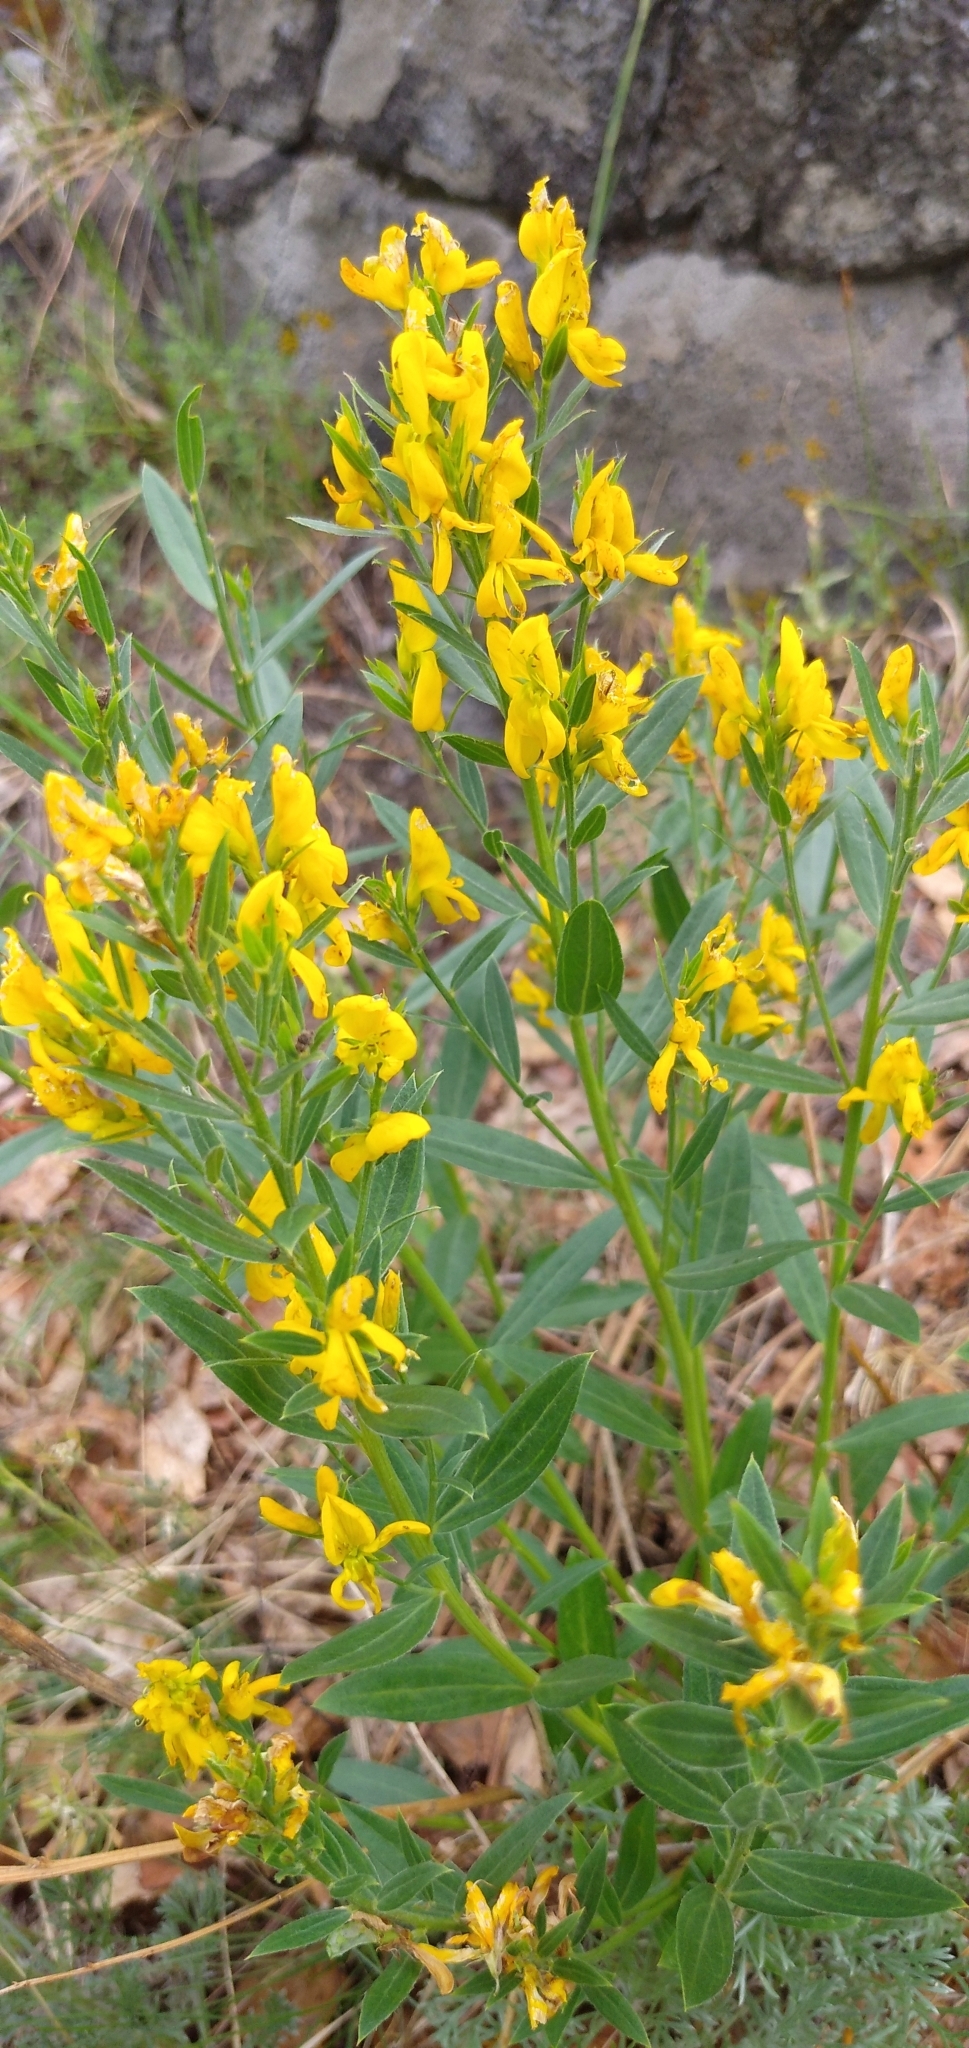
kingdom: Plantae
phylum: Tracheophyta
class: Magnoliopsida
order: Fabales
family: Fabaceae
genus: Genista
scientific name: Genista tinctoria
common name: Dyer's greenweed
